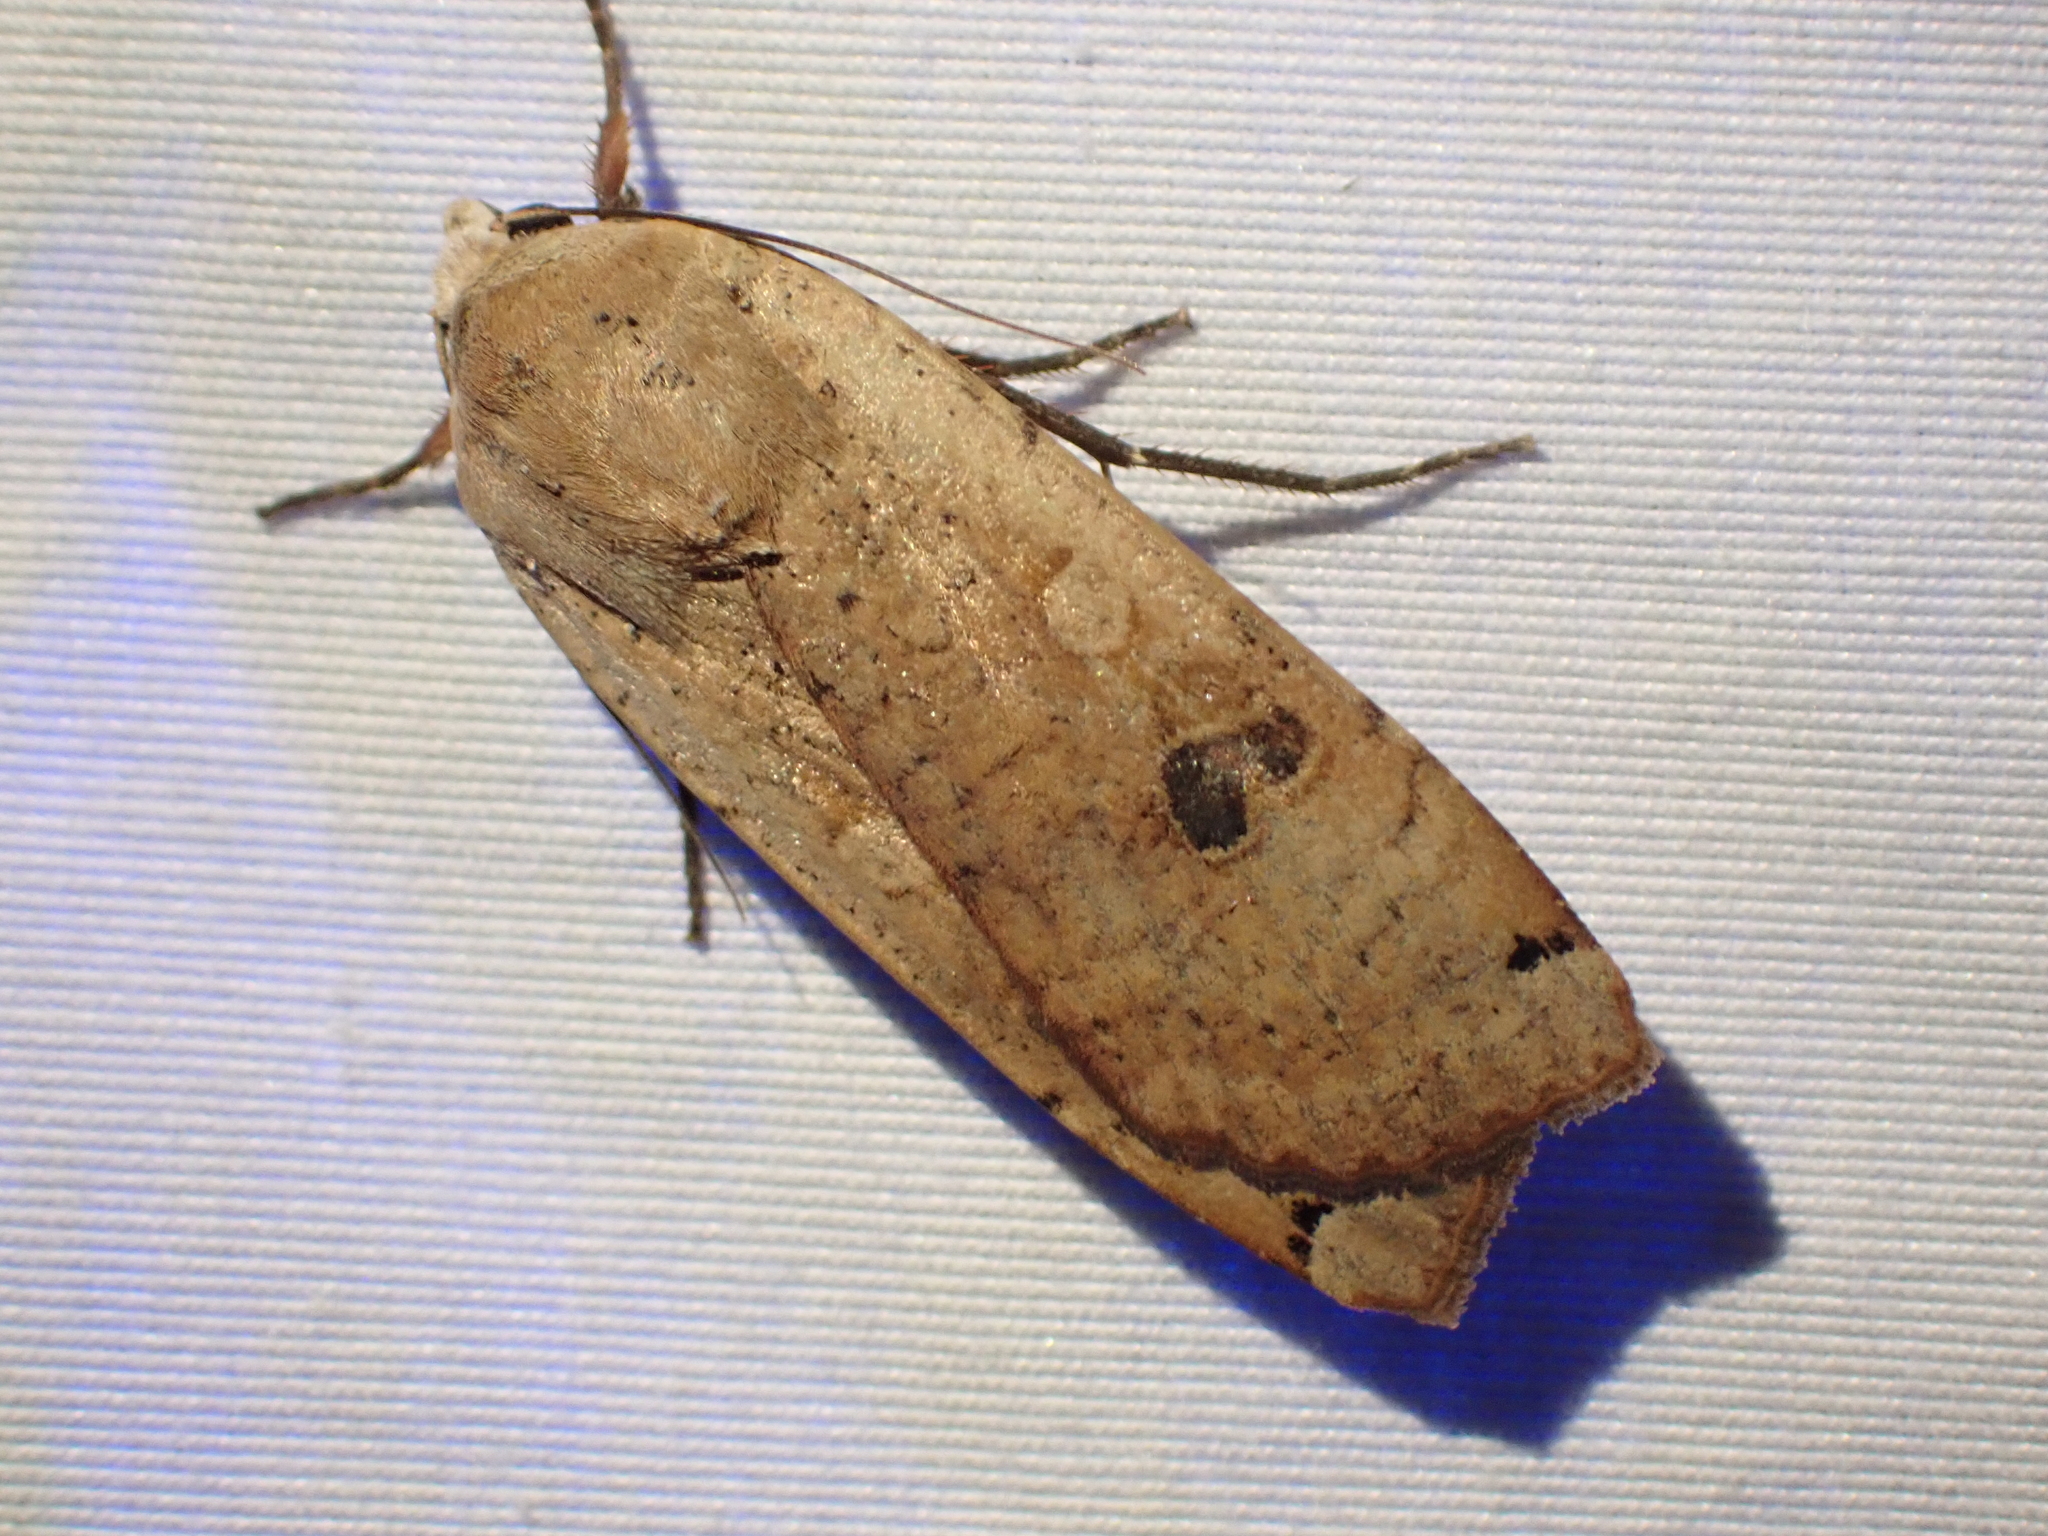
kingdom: Animalia
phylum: Arthropoda
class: Insecta
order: Lepidoptera
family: Noctuidae
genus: Noctua
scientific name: Noctua pronuba
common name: Large yellow underwing
